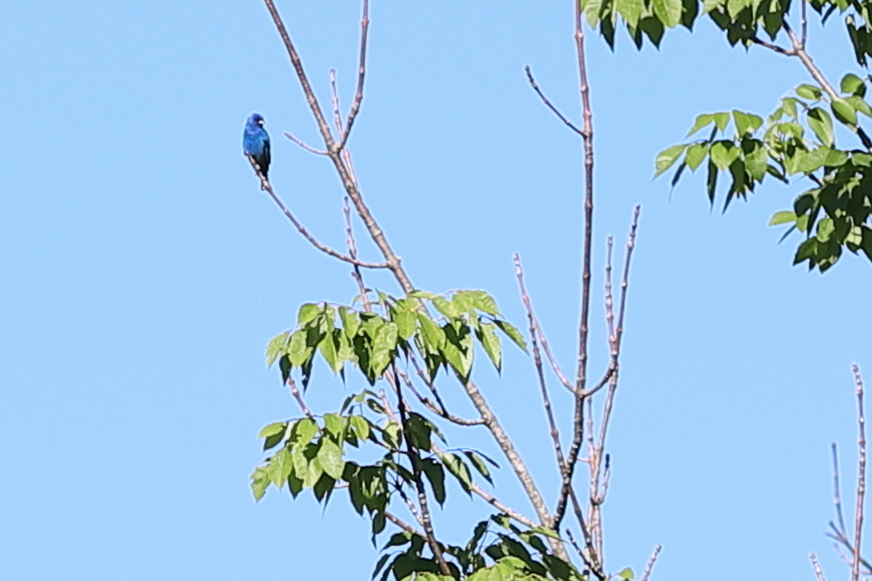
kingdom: Animalia
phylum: Chordata
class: Aves
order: Passeriformes
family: Cardinalidae
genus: Passerina
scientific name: Passerina cyanea
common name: Indigo bunting
